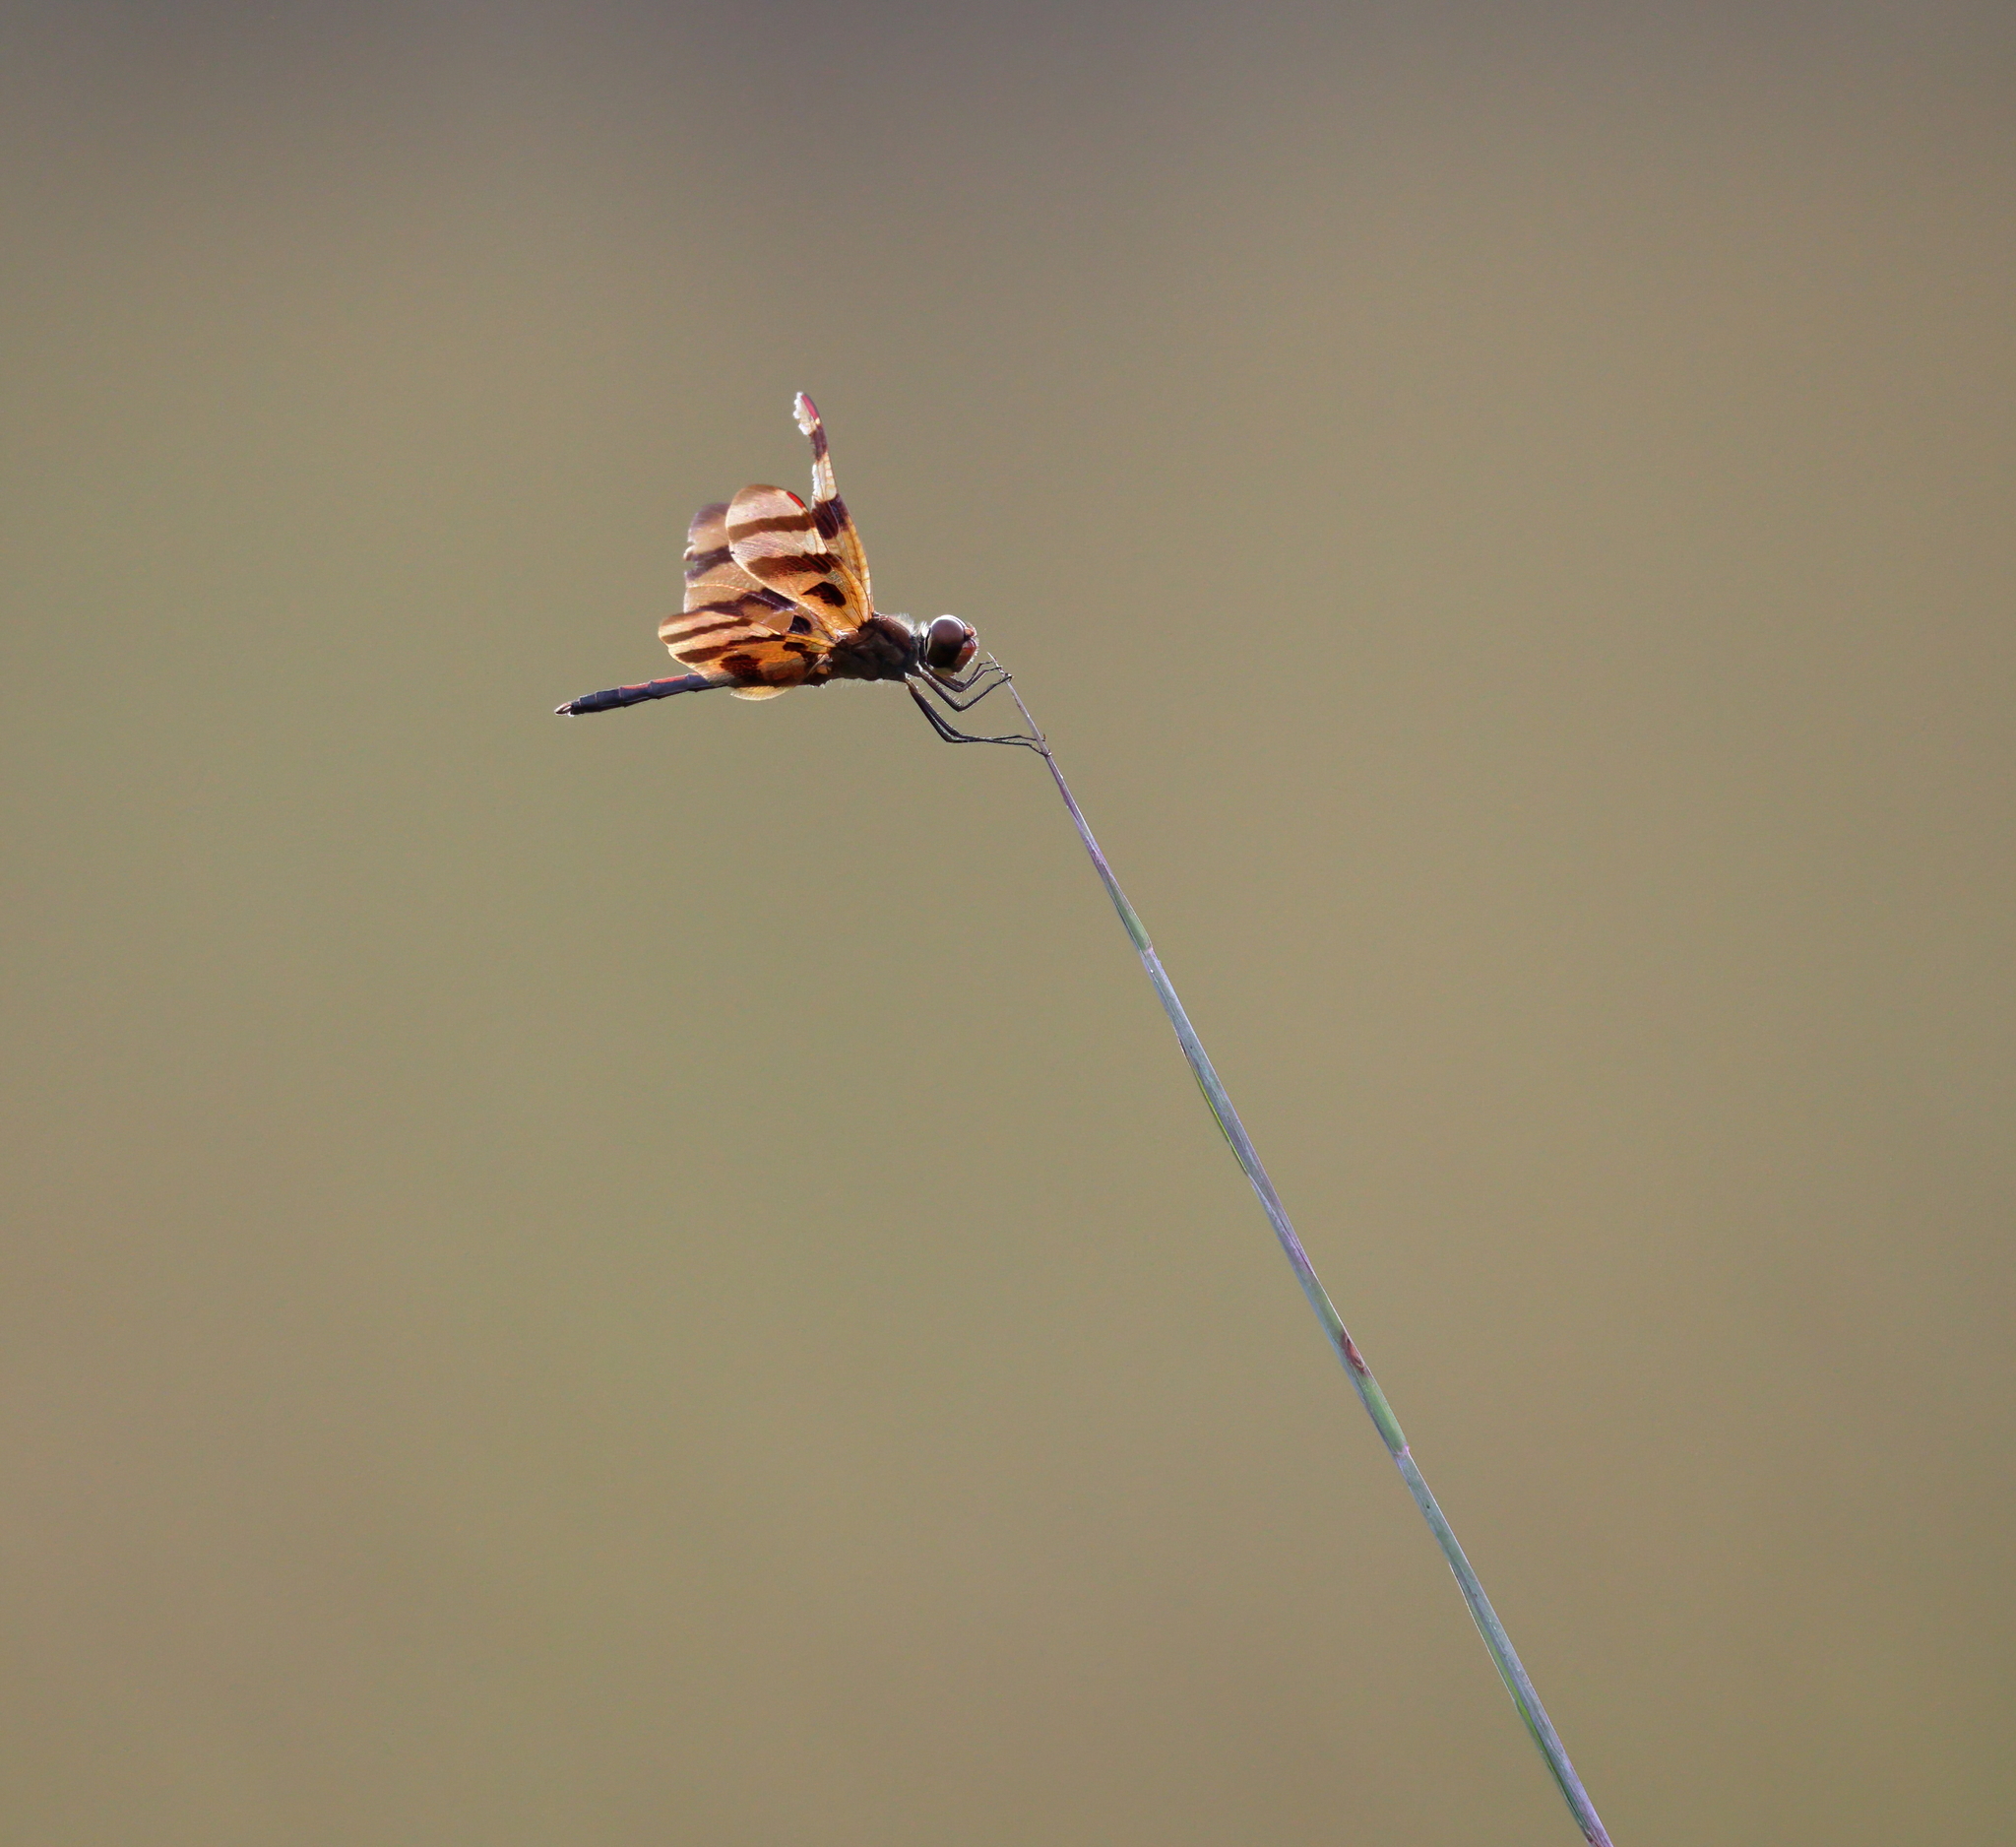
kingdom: Animalia
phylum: Arthropoda
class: Insecta
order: Odonata
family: Libellulidae
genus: Celithemis
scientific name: Celithemis eponina
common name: Halloween pennant
